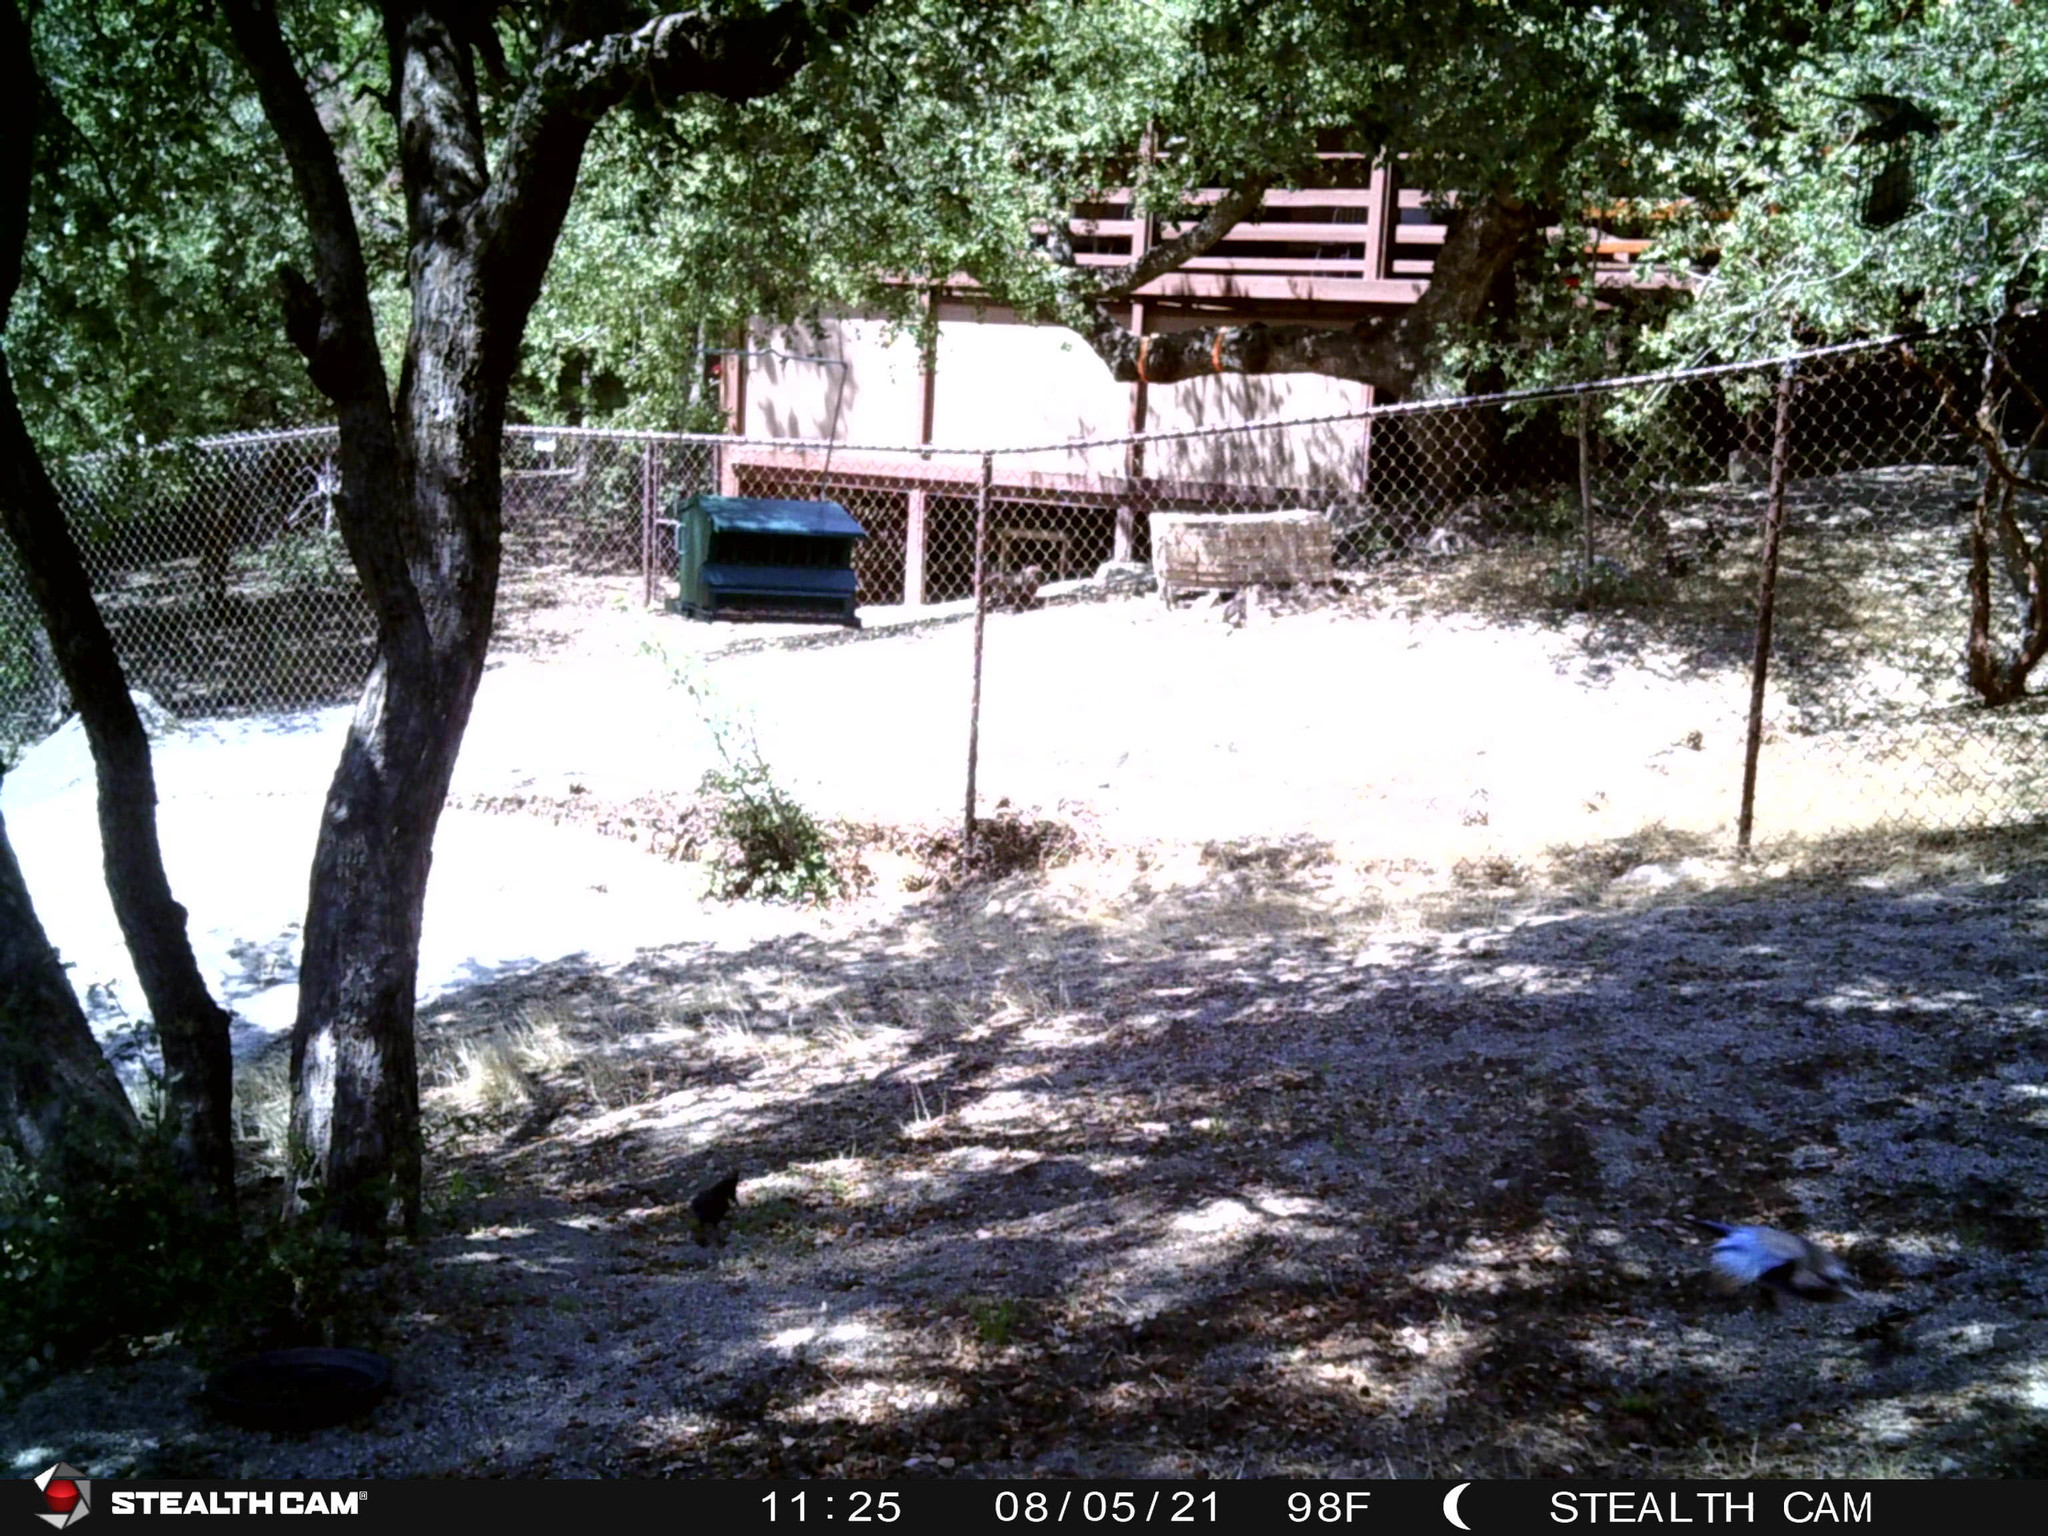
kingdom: Animalia
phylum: Chordata
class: Aves
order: Passeriformes
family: Corvidae
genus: Cyanocitta
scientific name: Cyanocitta stelleri
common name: Steller's jay
